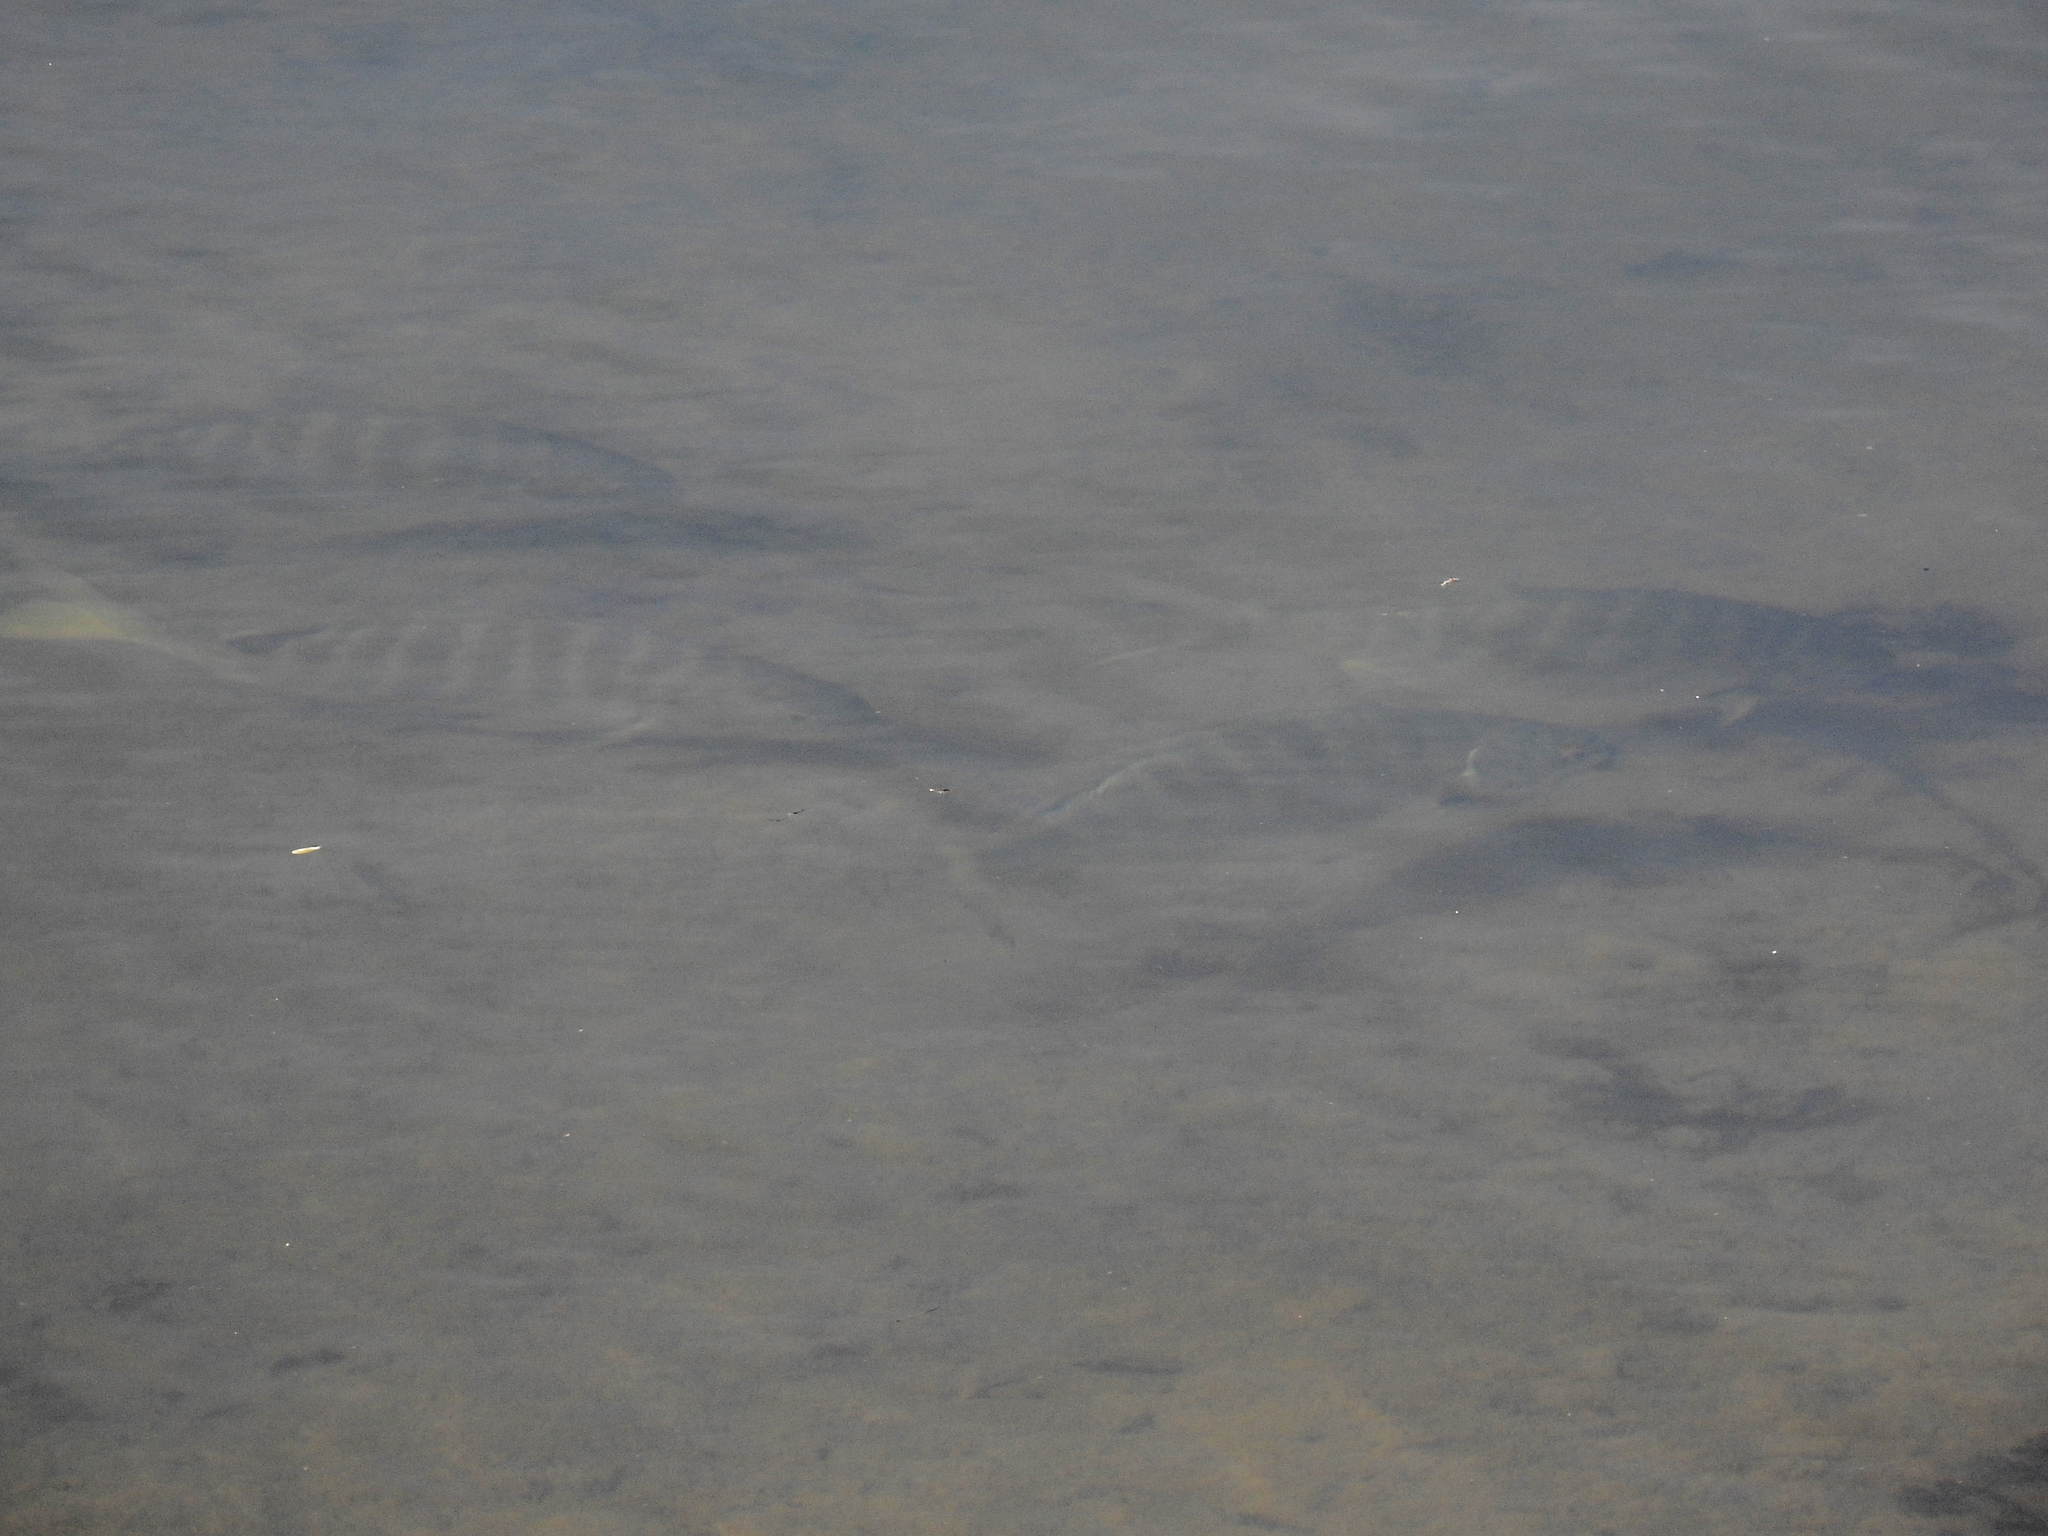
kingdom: Animalia
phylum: Chordata
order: Perciformes
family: Kyphosidae
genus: Kyphosus
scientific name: Kyphosus azureus
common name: Perch
